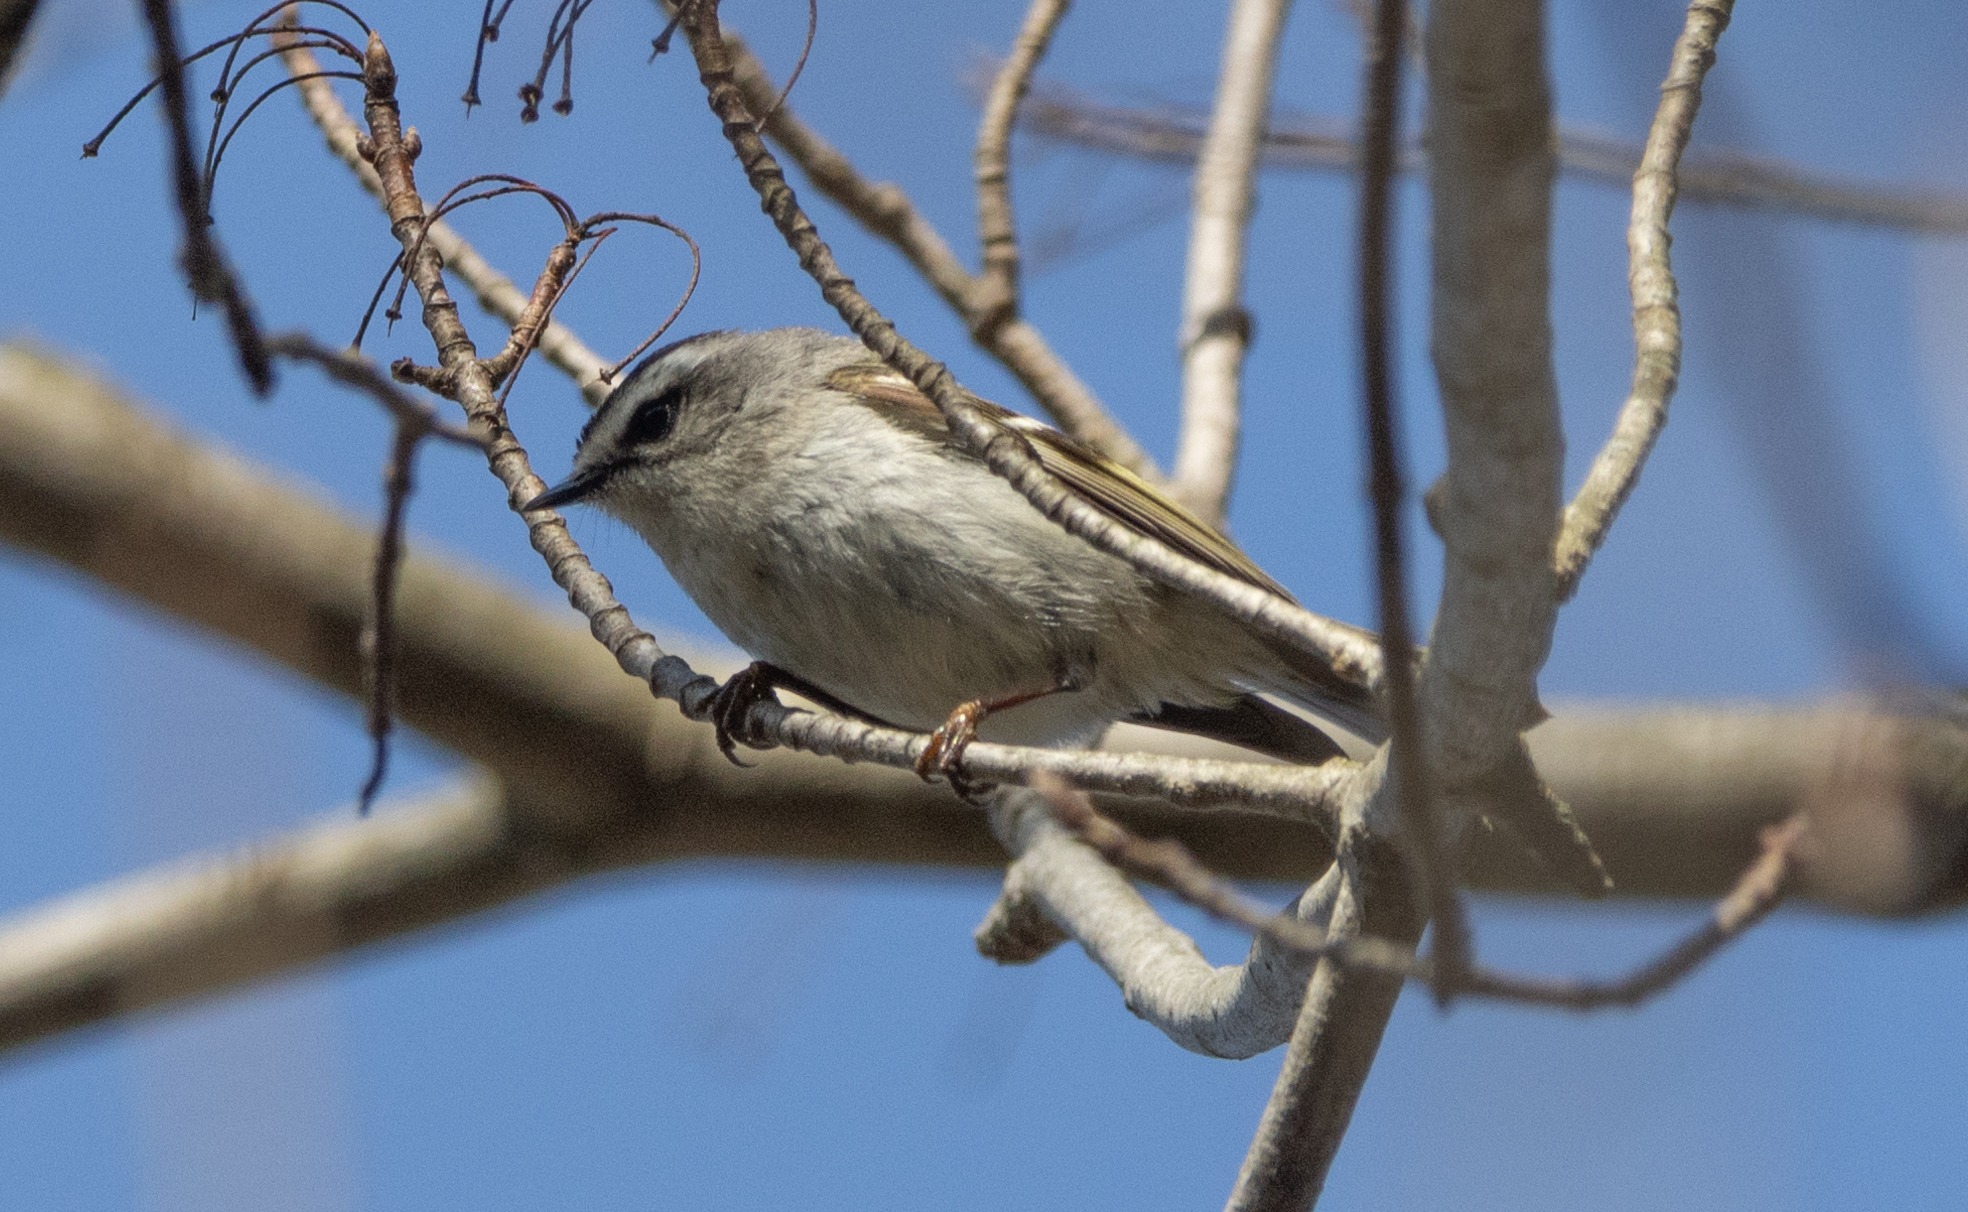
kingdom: Animalia
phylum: Chordata
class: Aves
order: Passeriformes
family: Regulidae
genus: Regulus
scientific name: Regulus satrapa
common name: Golden-crowned kinglet
